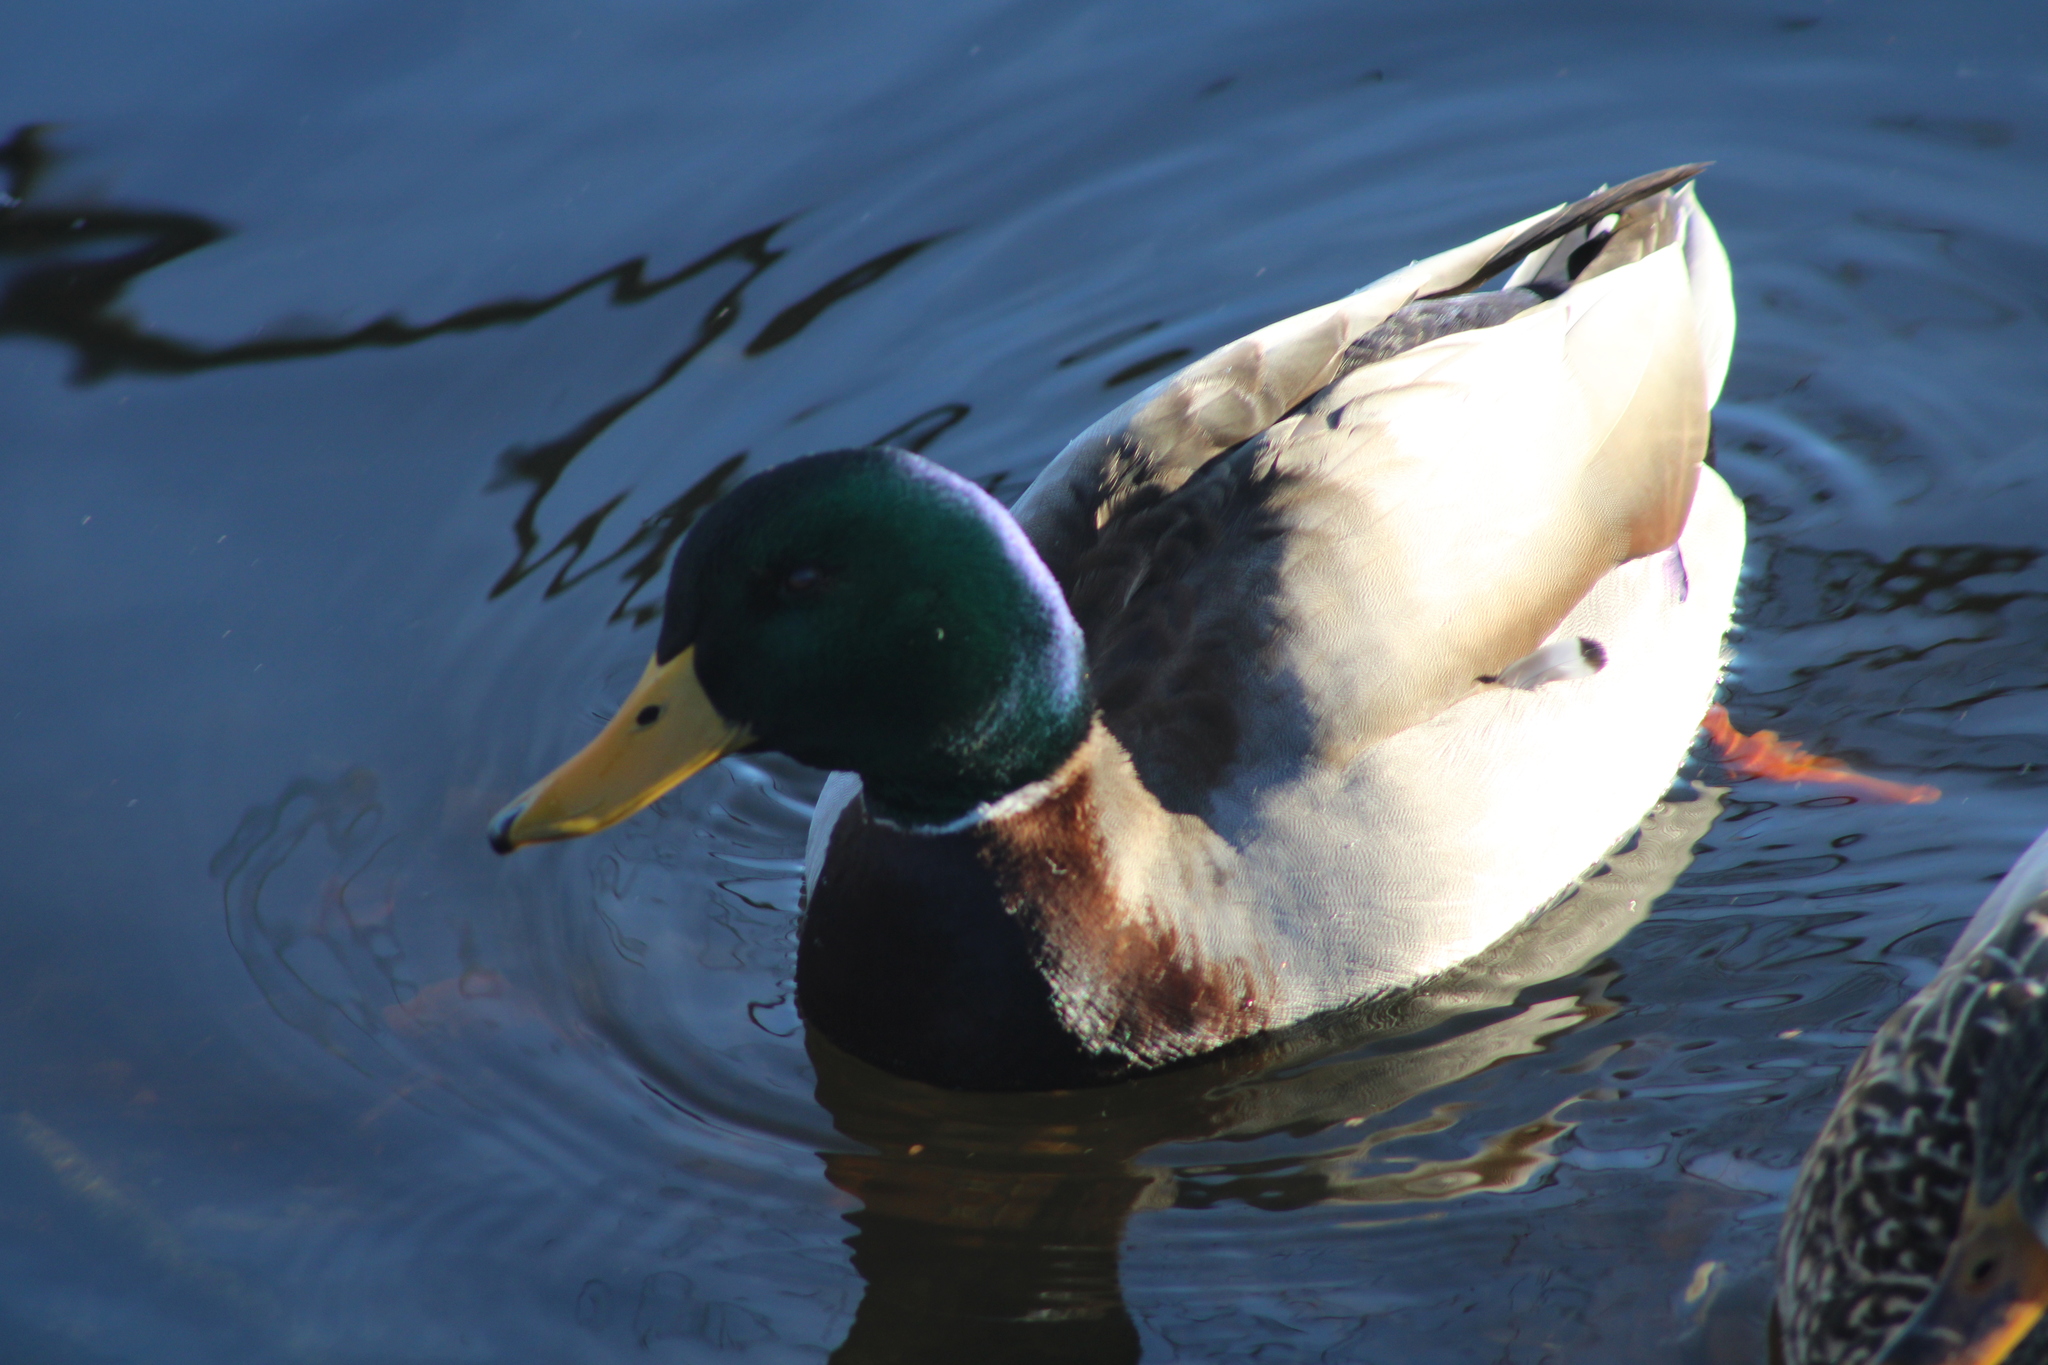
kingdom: Animalia
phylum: Chordata
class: Aves
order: Anseriformes
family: Anatidae
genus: Anas
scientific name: Anas platyrhynchos
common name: Mallard
